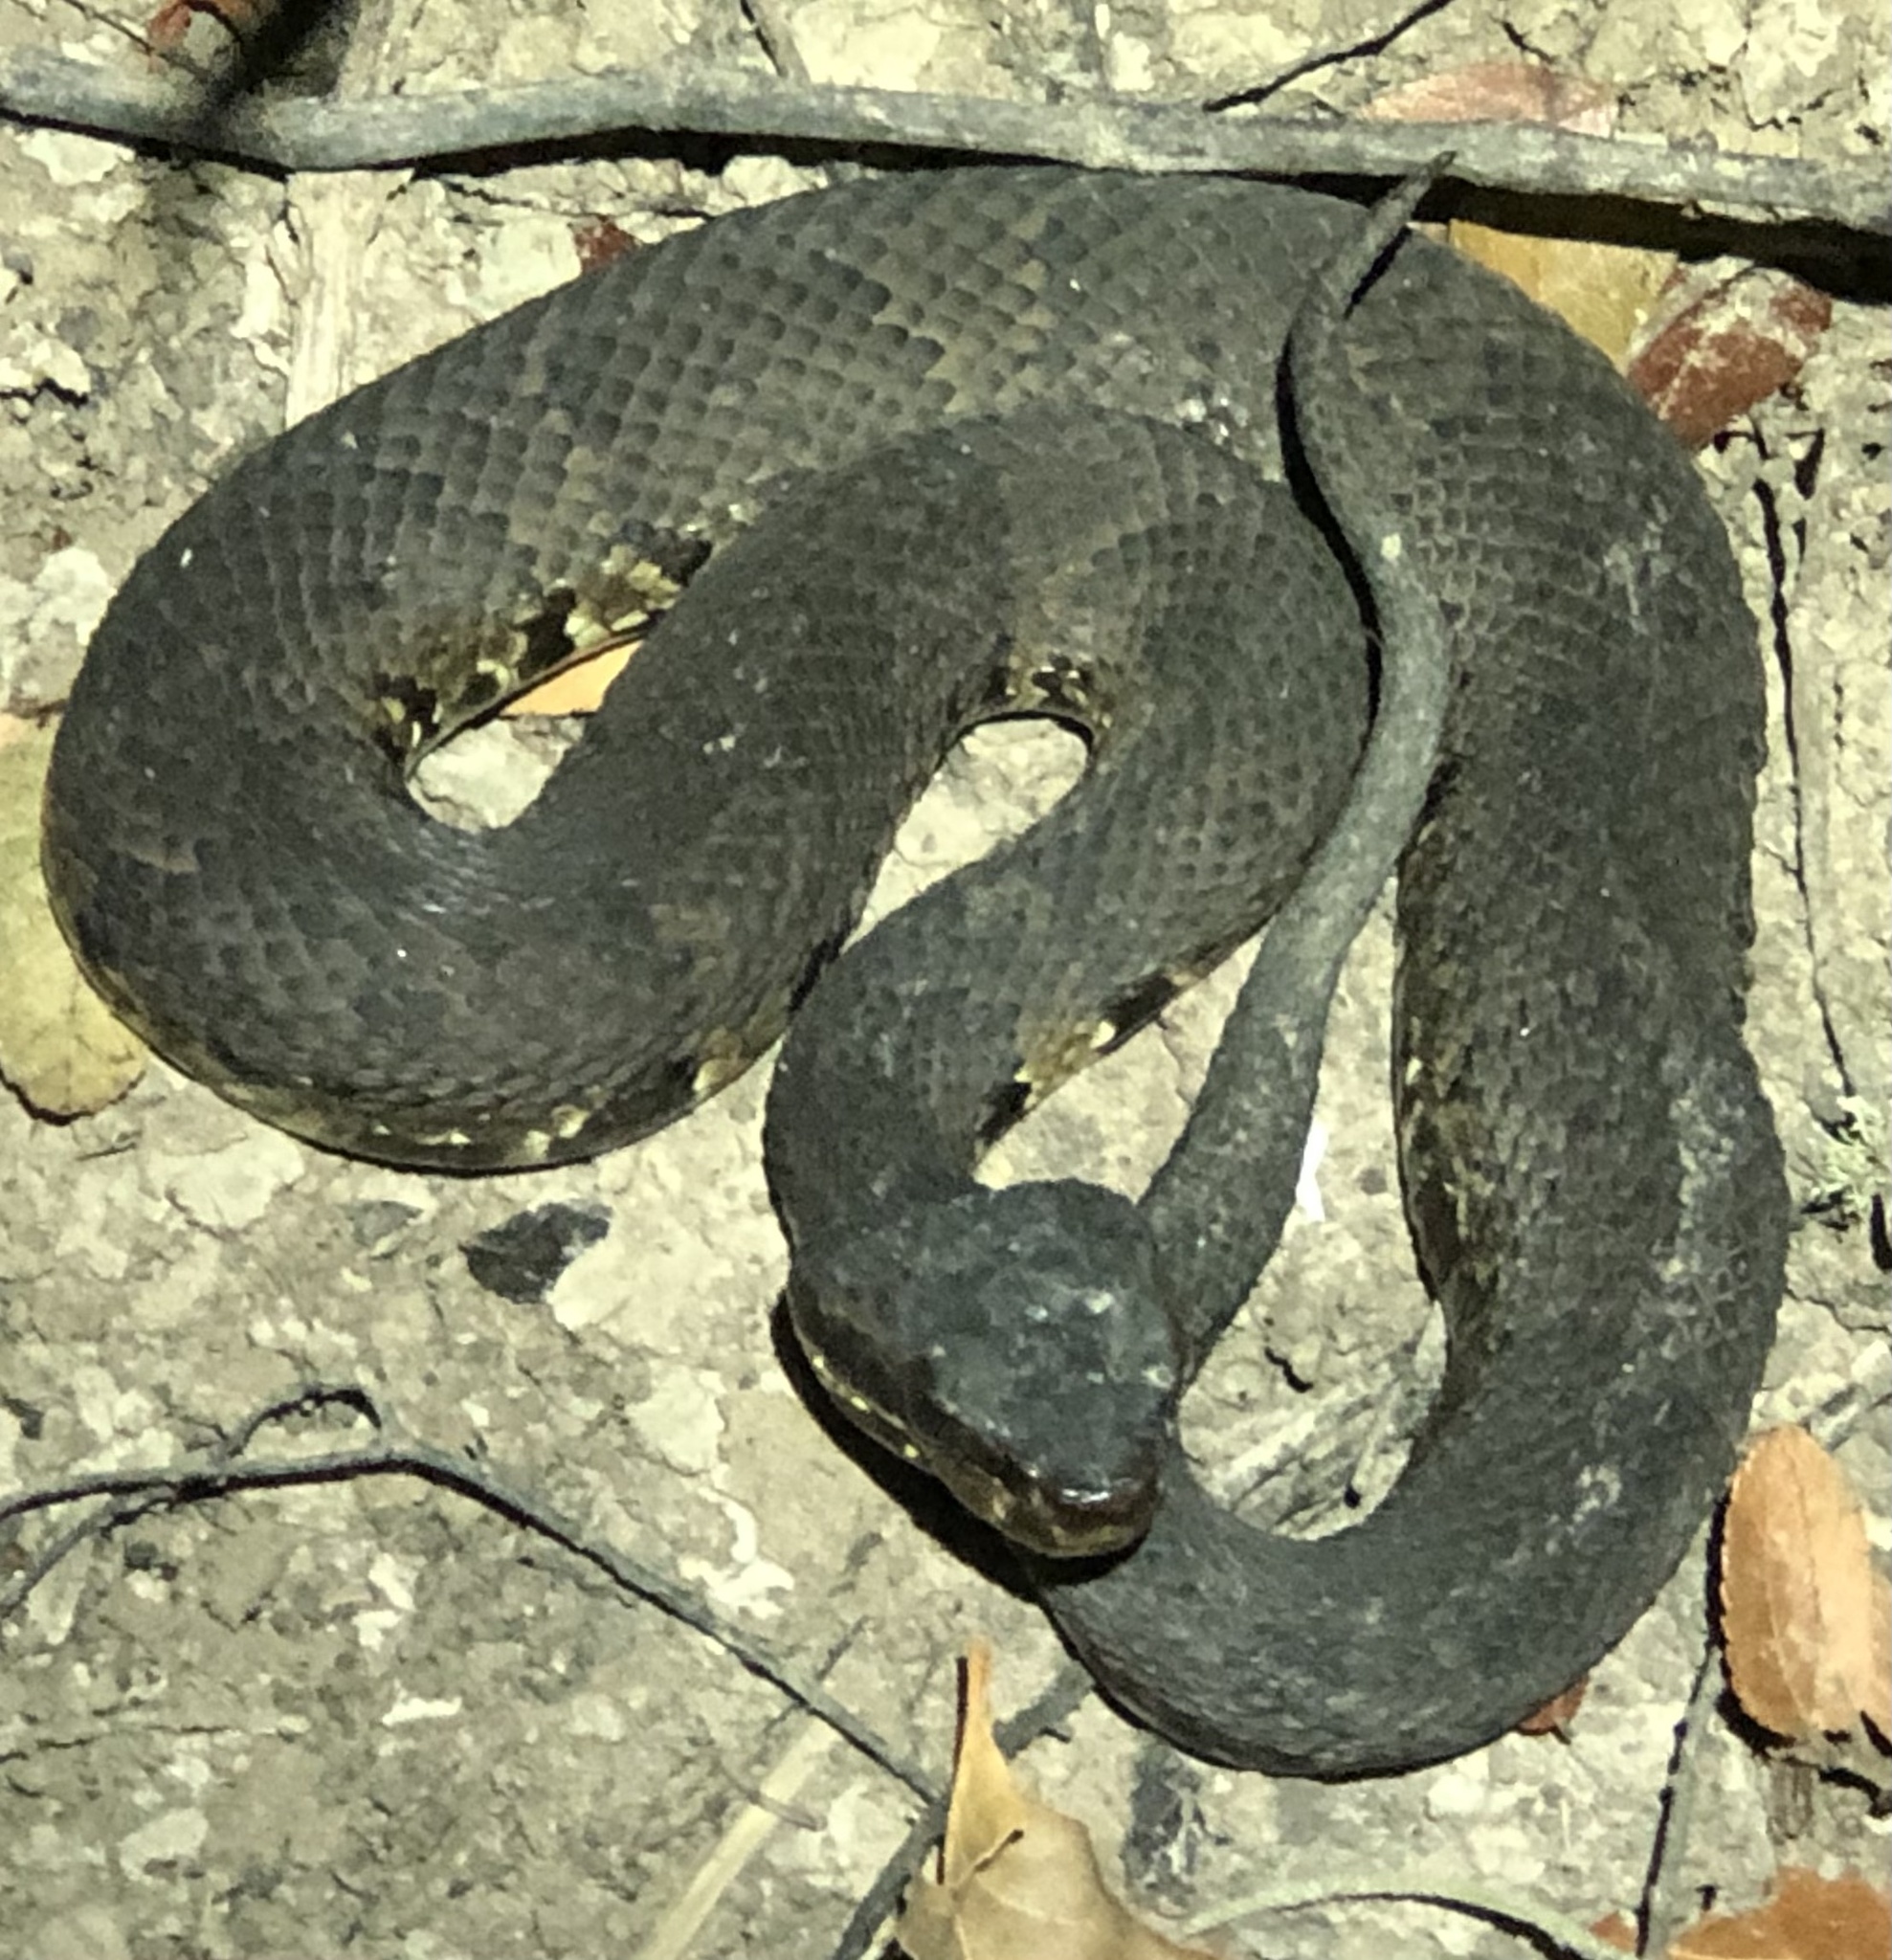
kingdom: Animalia
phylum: Chordata
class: Squamata
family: Viperidae
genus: Agkistrodon
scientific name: Agkistrodon piscivorus
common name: Cottonmouth
